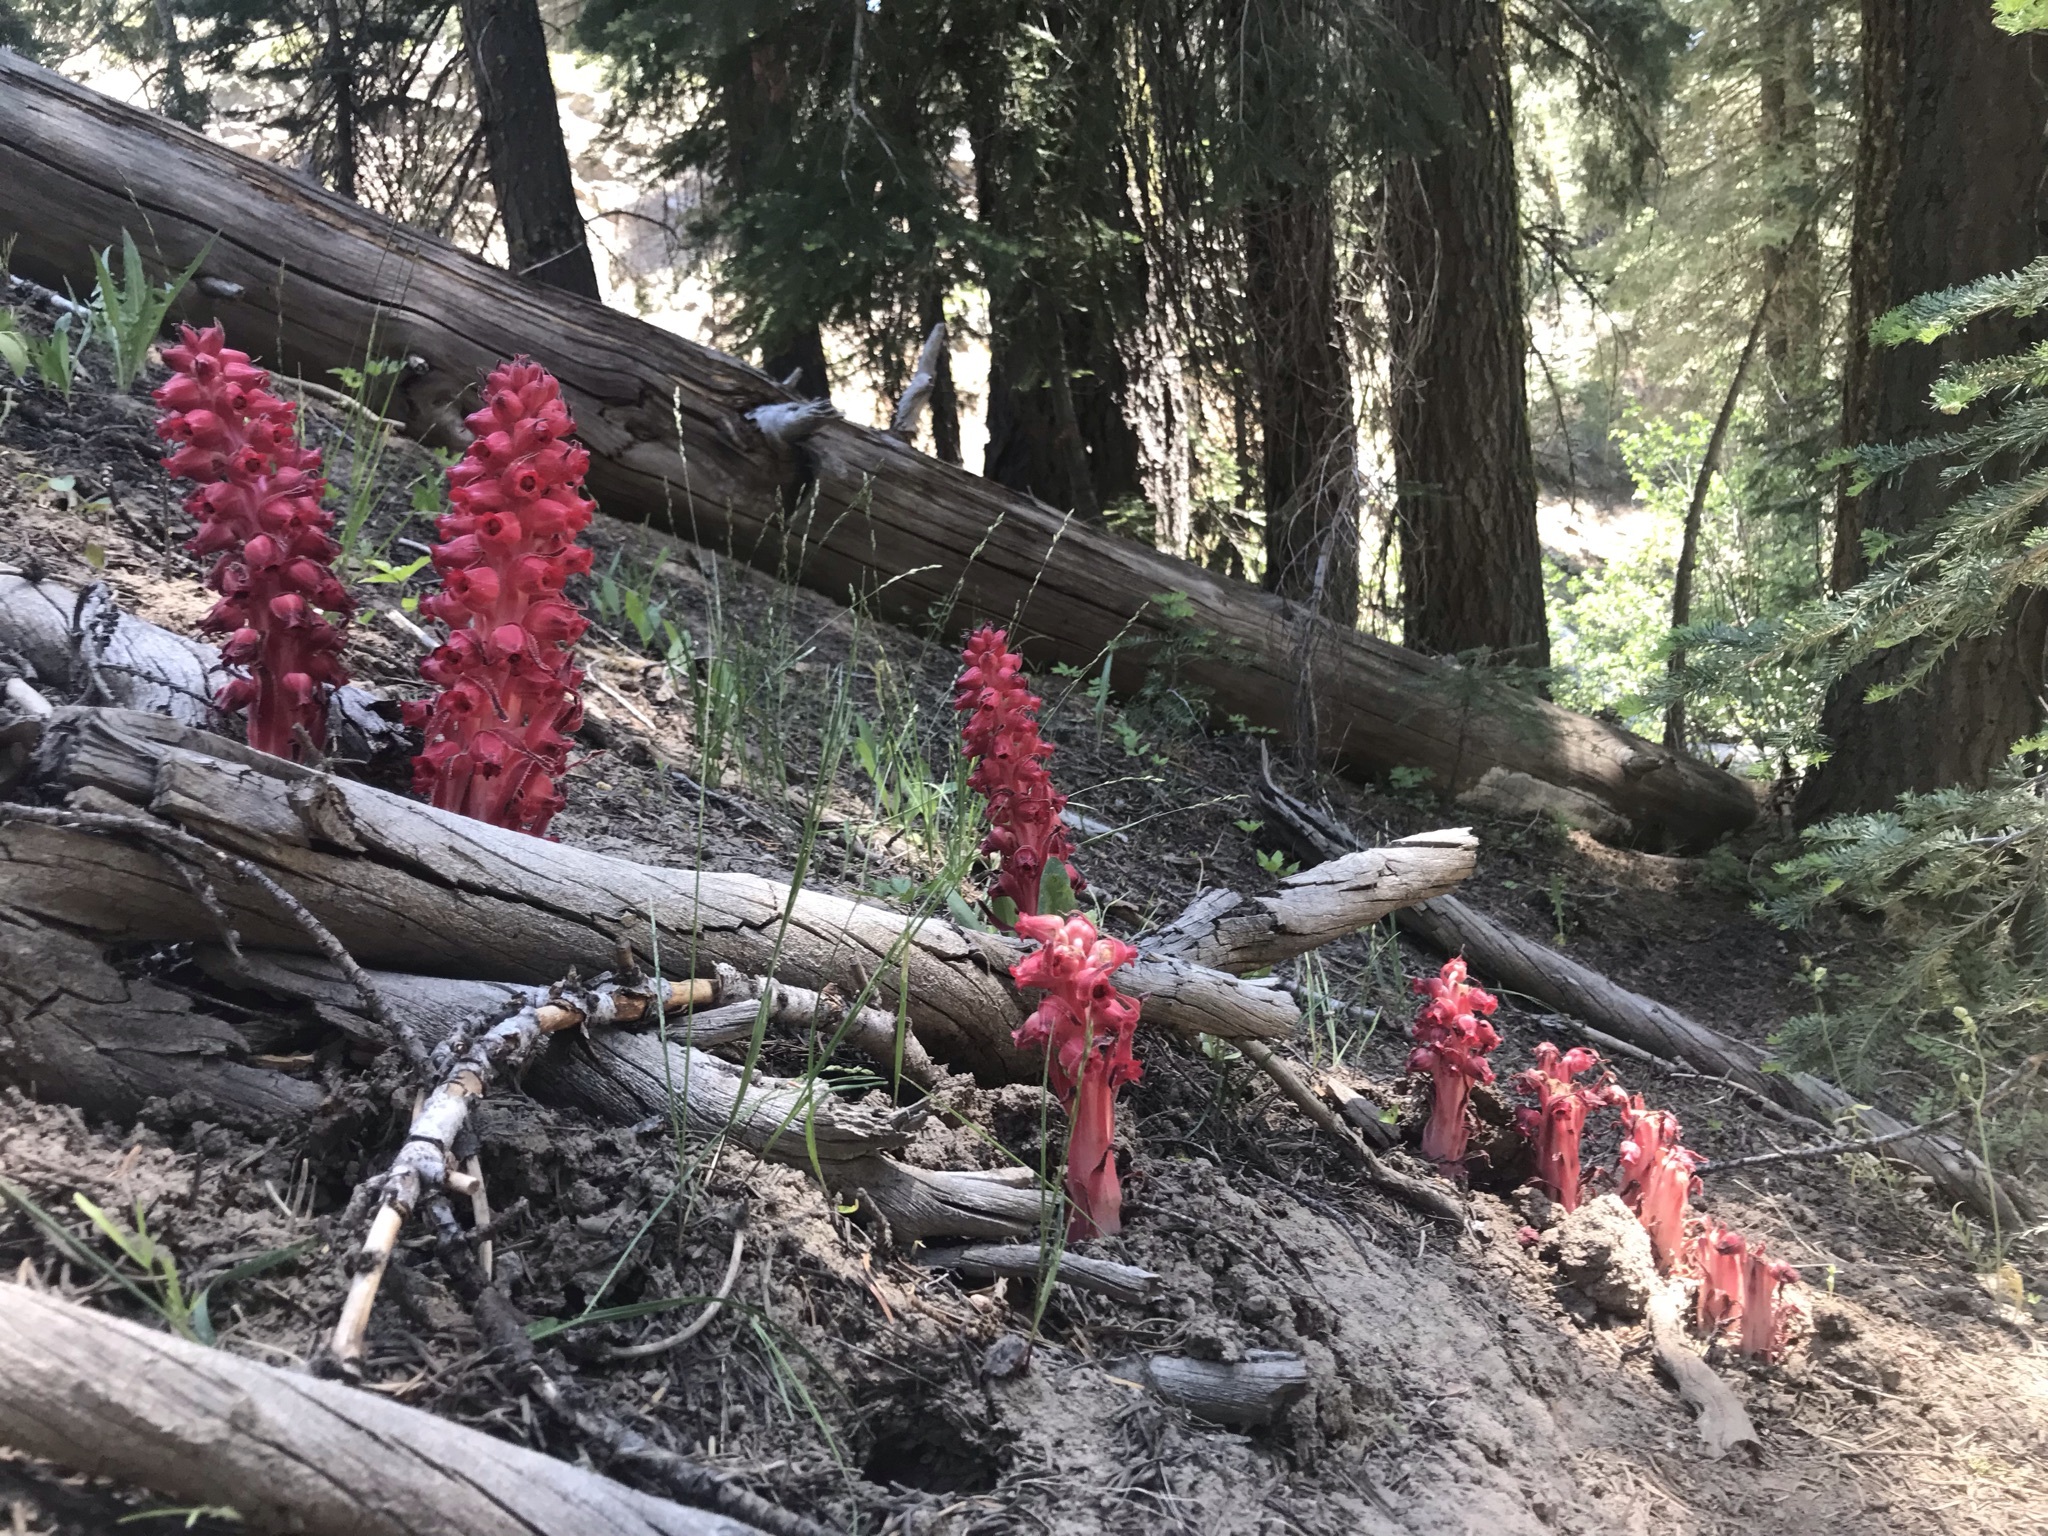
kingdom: Plantae
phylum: Tracheophyta
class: Magnoliopsida
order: Ericales
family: Ericaceae
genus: Sarcodes
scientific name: Sarcodes sanguinea
